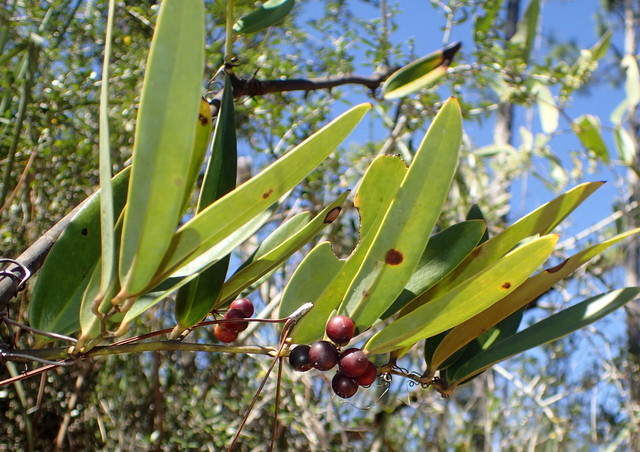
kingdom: Plantae
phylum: Tracheophyta
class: Liliopsida
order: Liliales
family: Smilacaceae
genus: Smilax
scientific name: Smilax laurifolia
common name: Bamboovine
